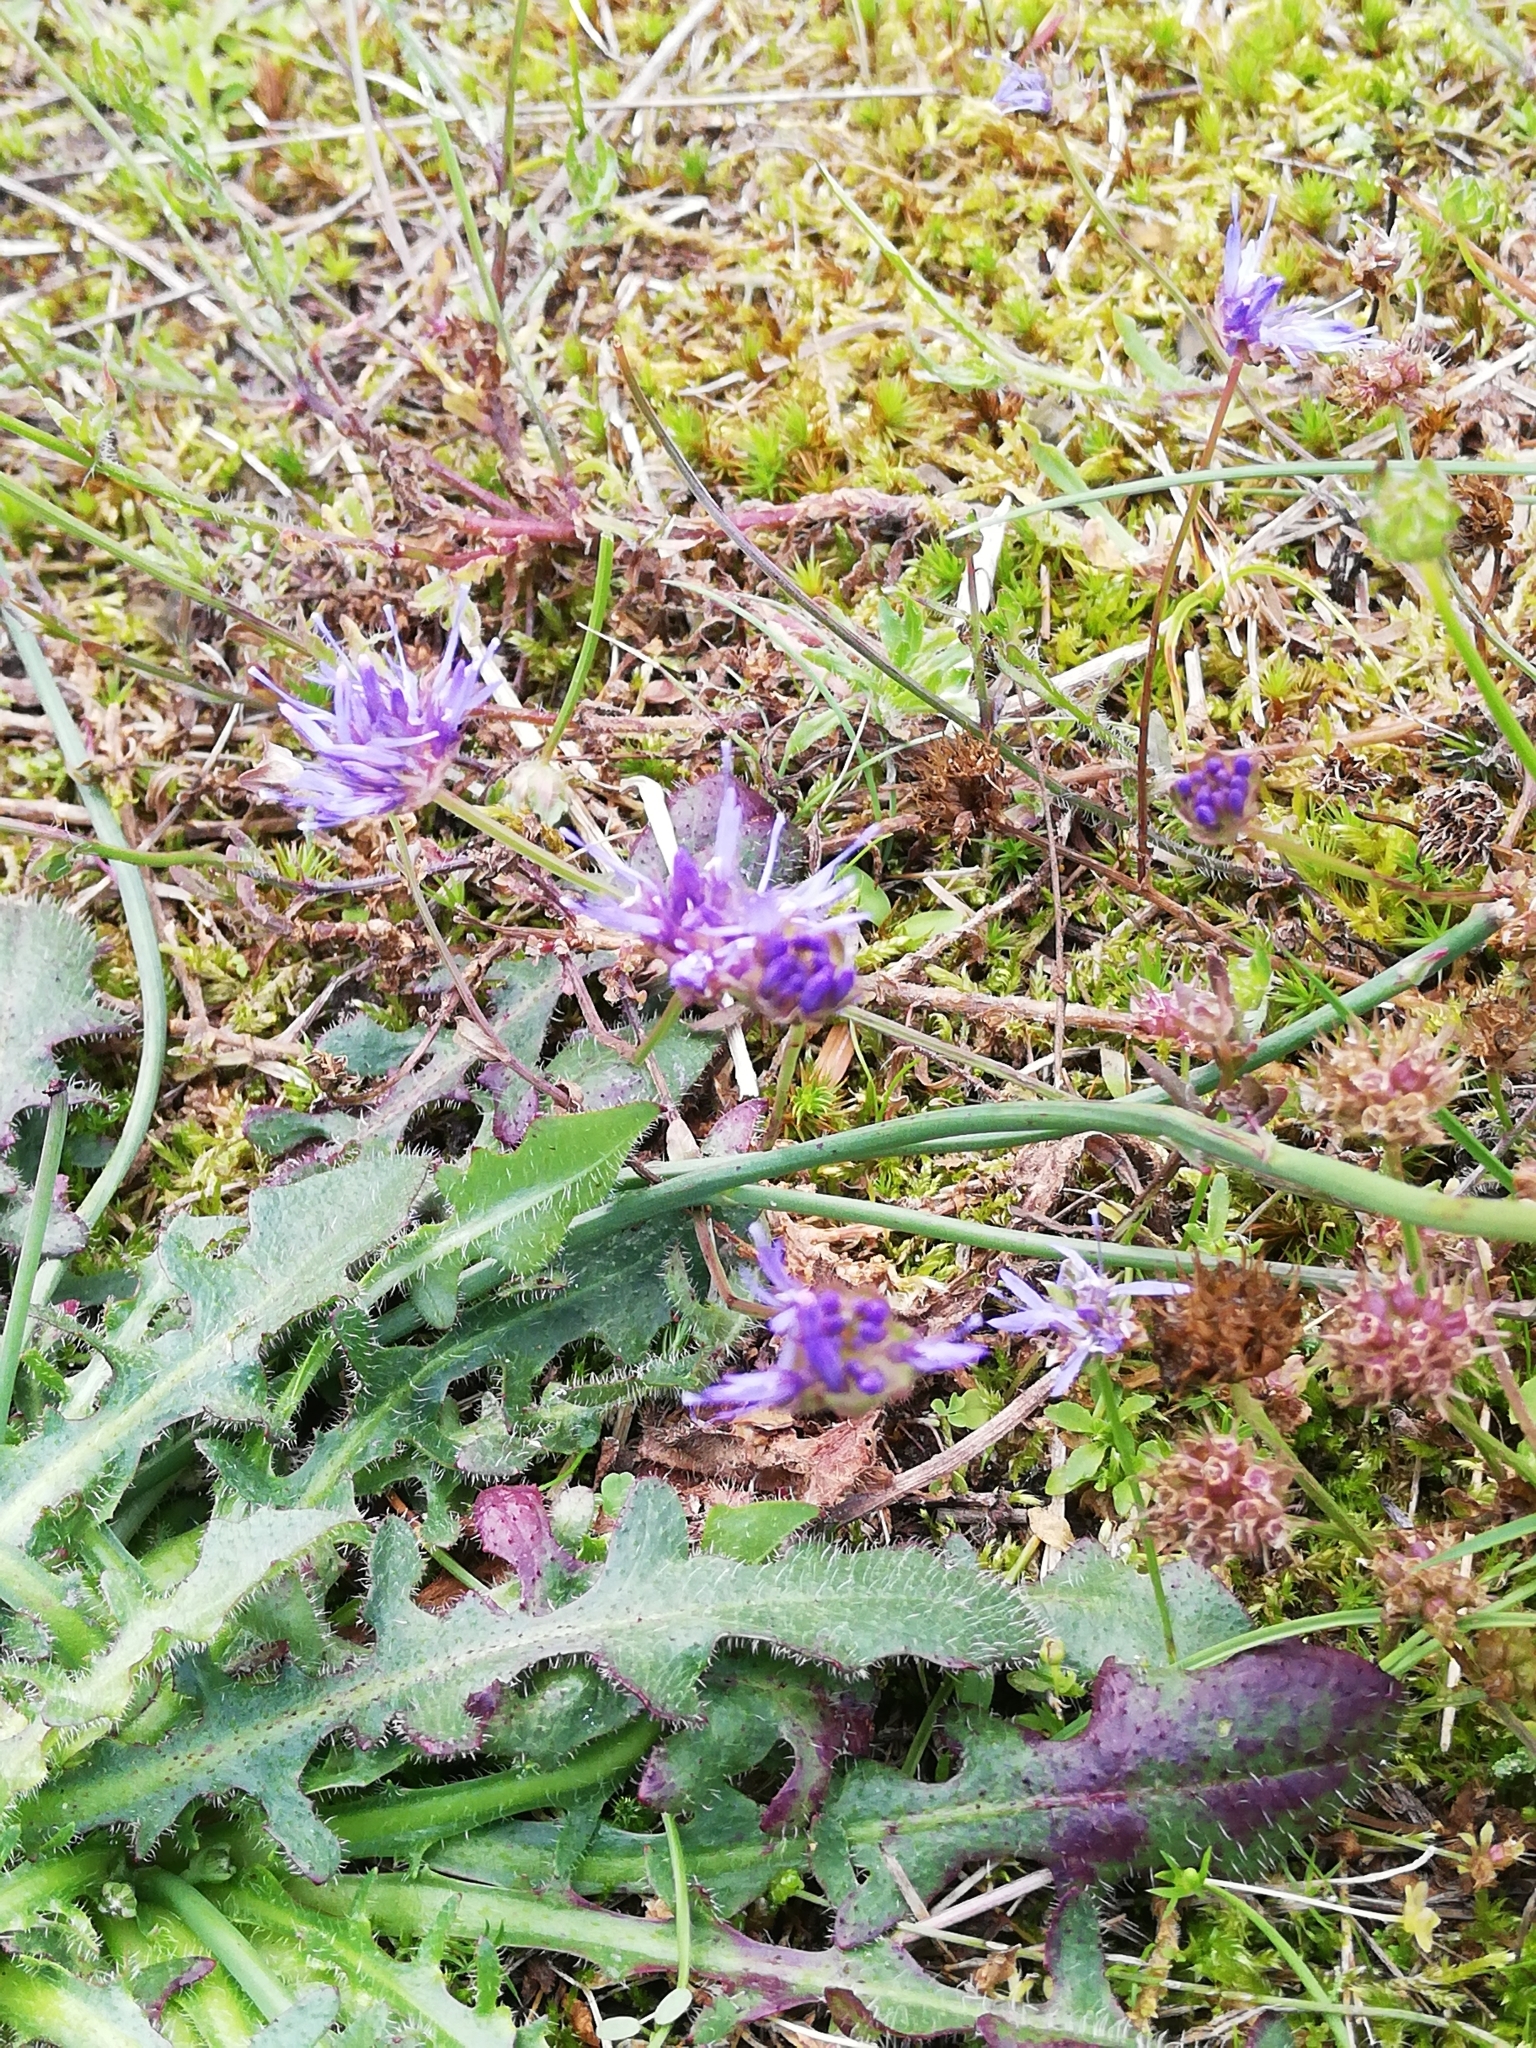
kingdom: Plantae
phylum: Tracheophyta
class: Magnoliopsida
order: Asterales
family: Campanulaceae
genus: Jasione
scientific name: Jasione montana
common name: Sheep's-bit
